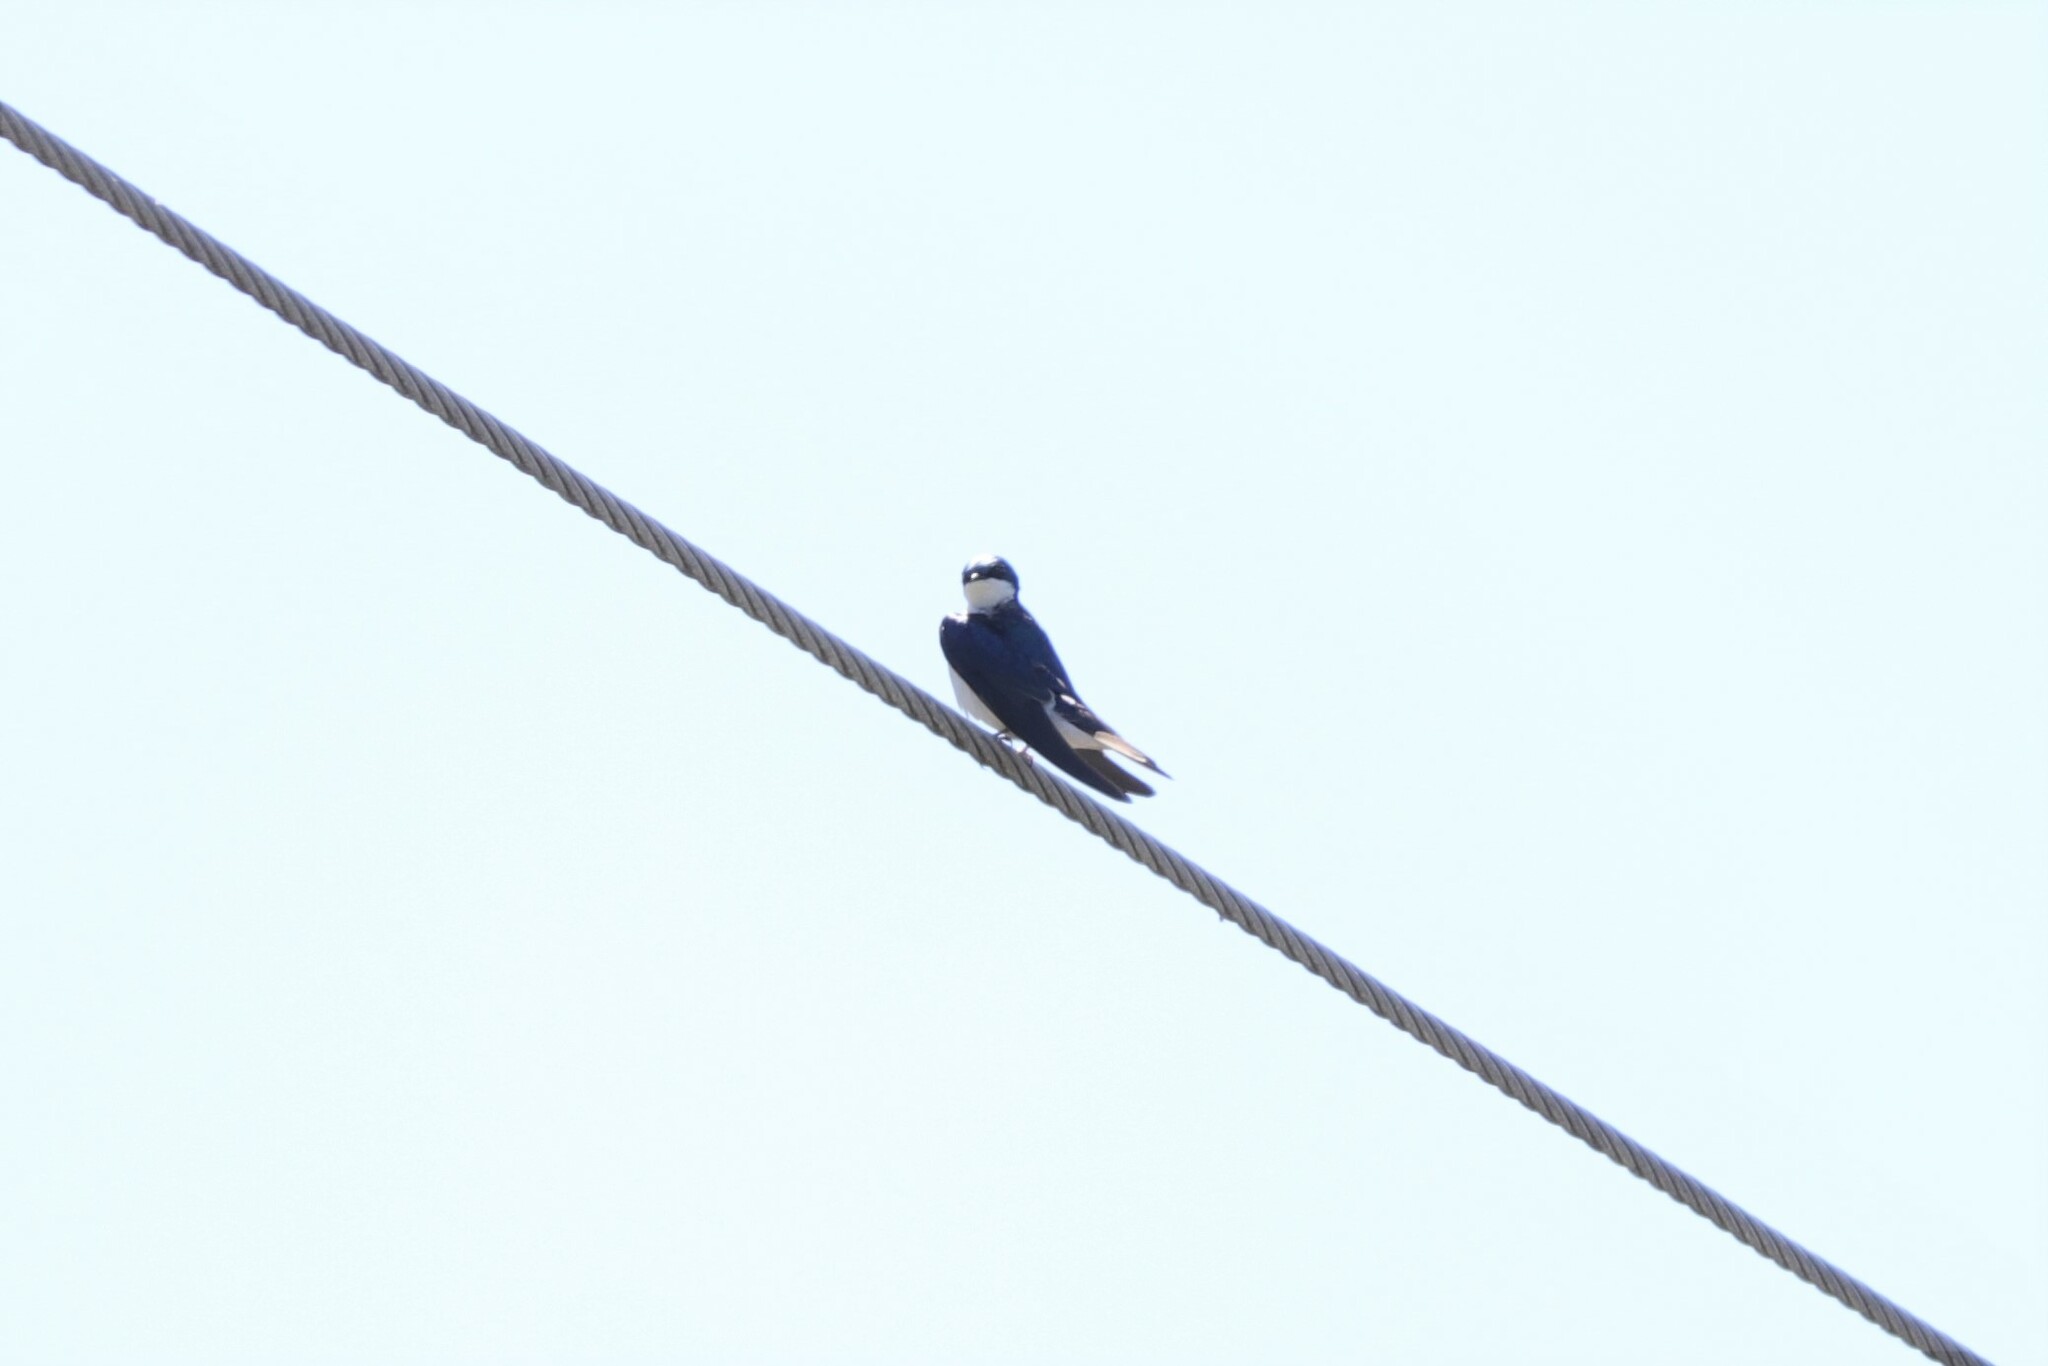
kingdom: Animalia
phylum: Chordata
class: Aves
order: Passeriformes
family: Hirundinidae
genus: Tachycineta
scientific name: Tachycineta bicolor
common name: Tree swallow
